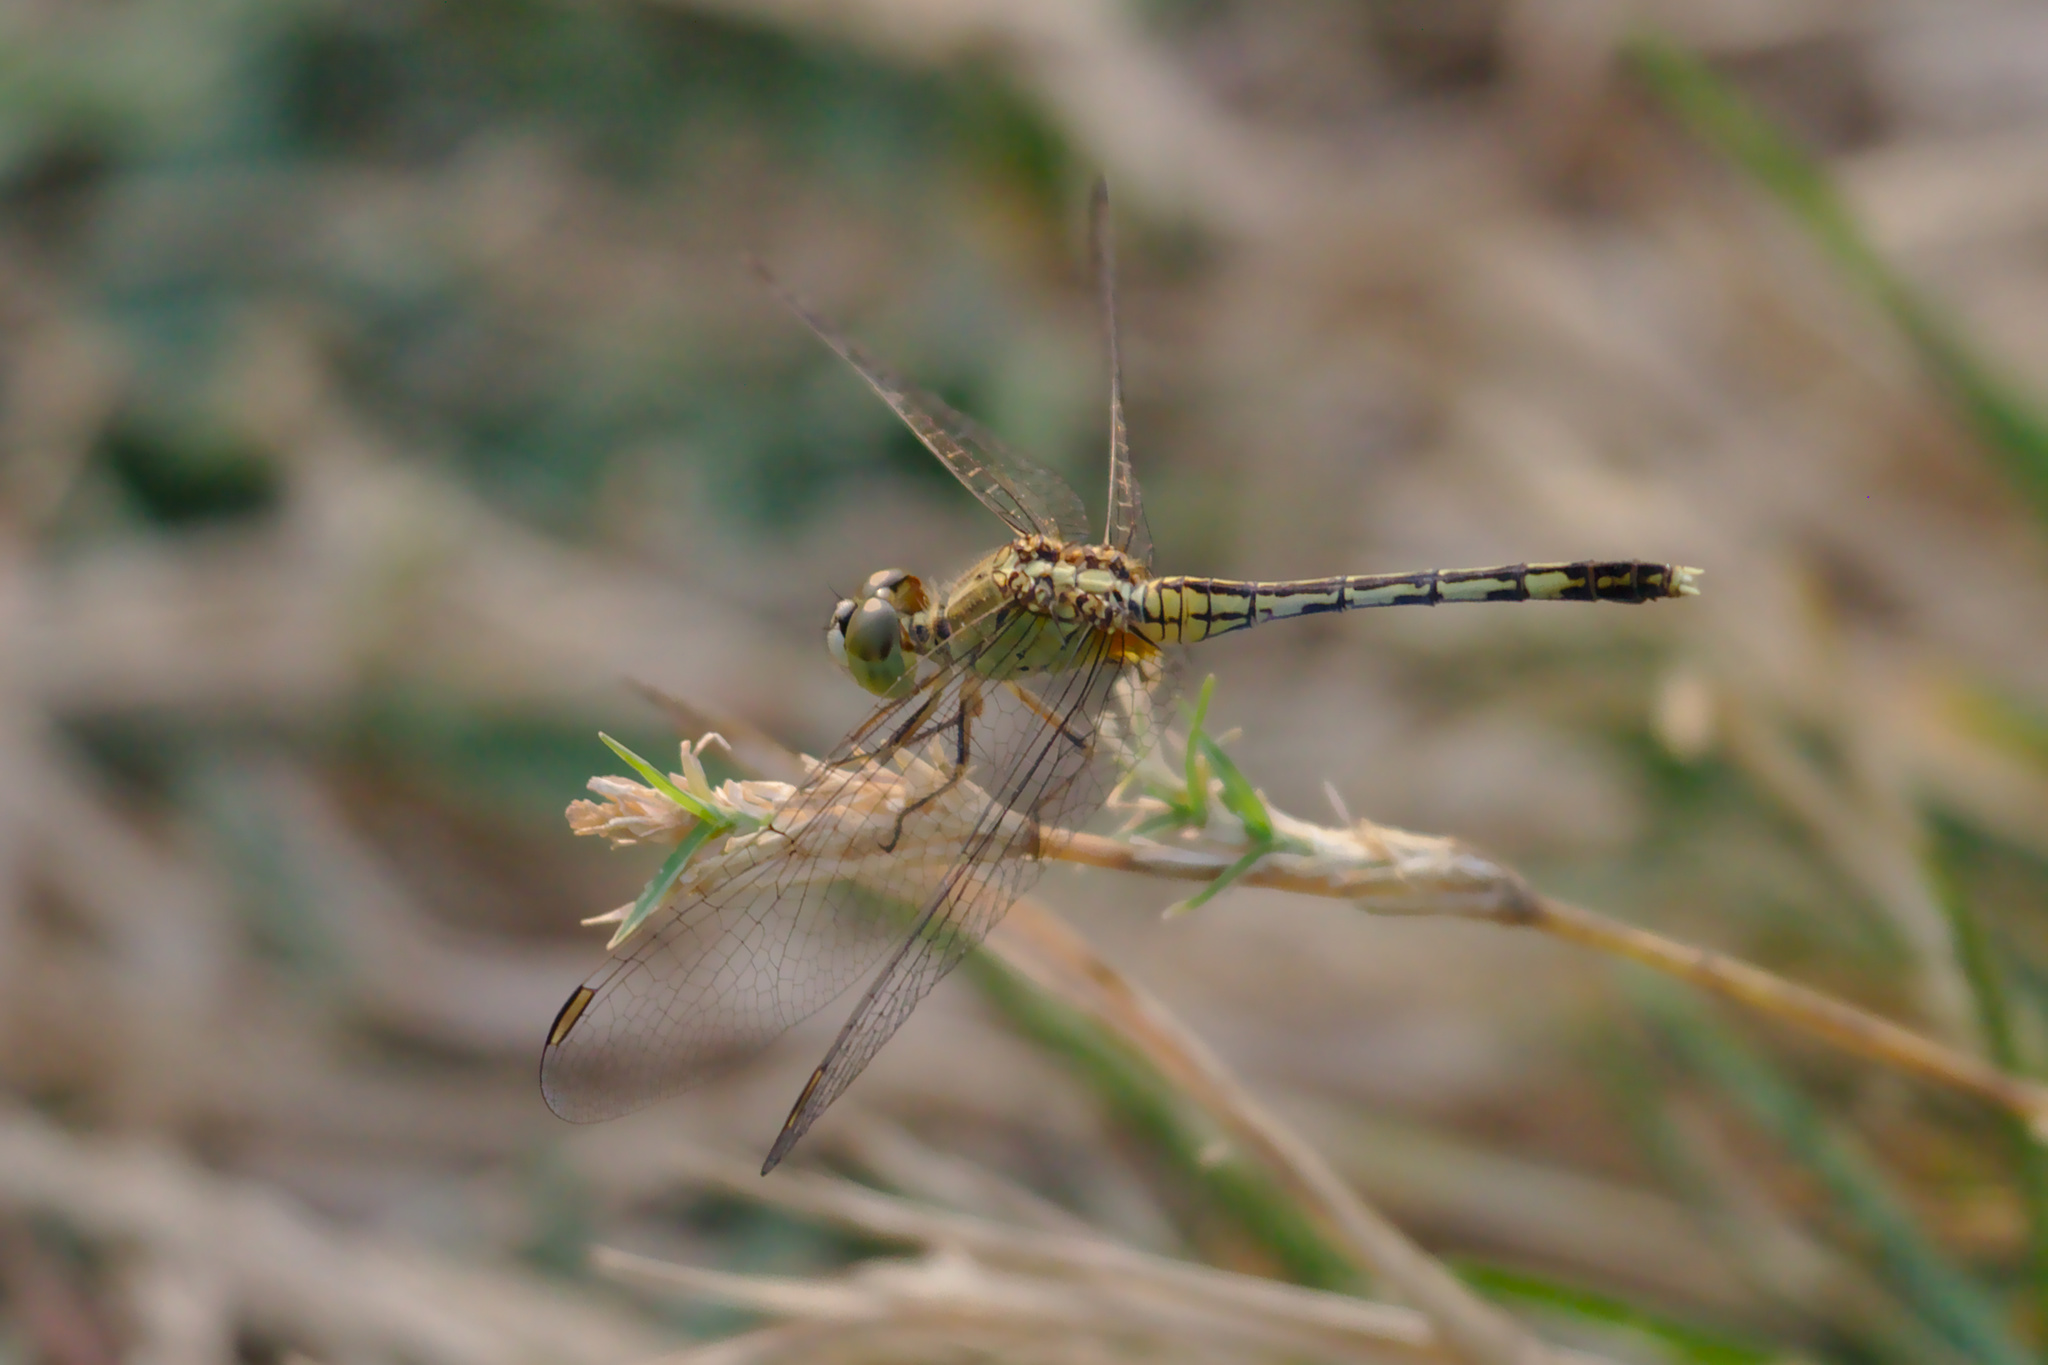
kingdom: Animalia
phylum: Arthropoda
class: Insecta
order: Odonata
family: Libellulidae
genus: Diplacodes
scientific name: Diplacodes trivialis
